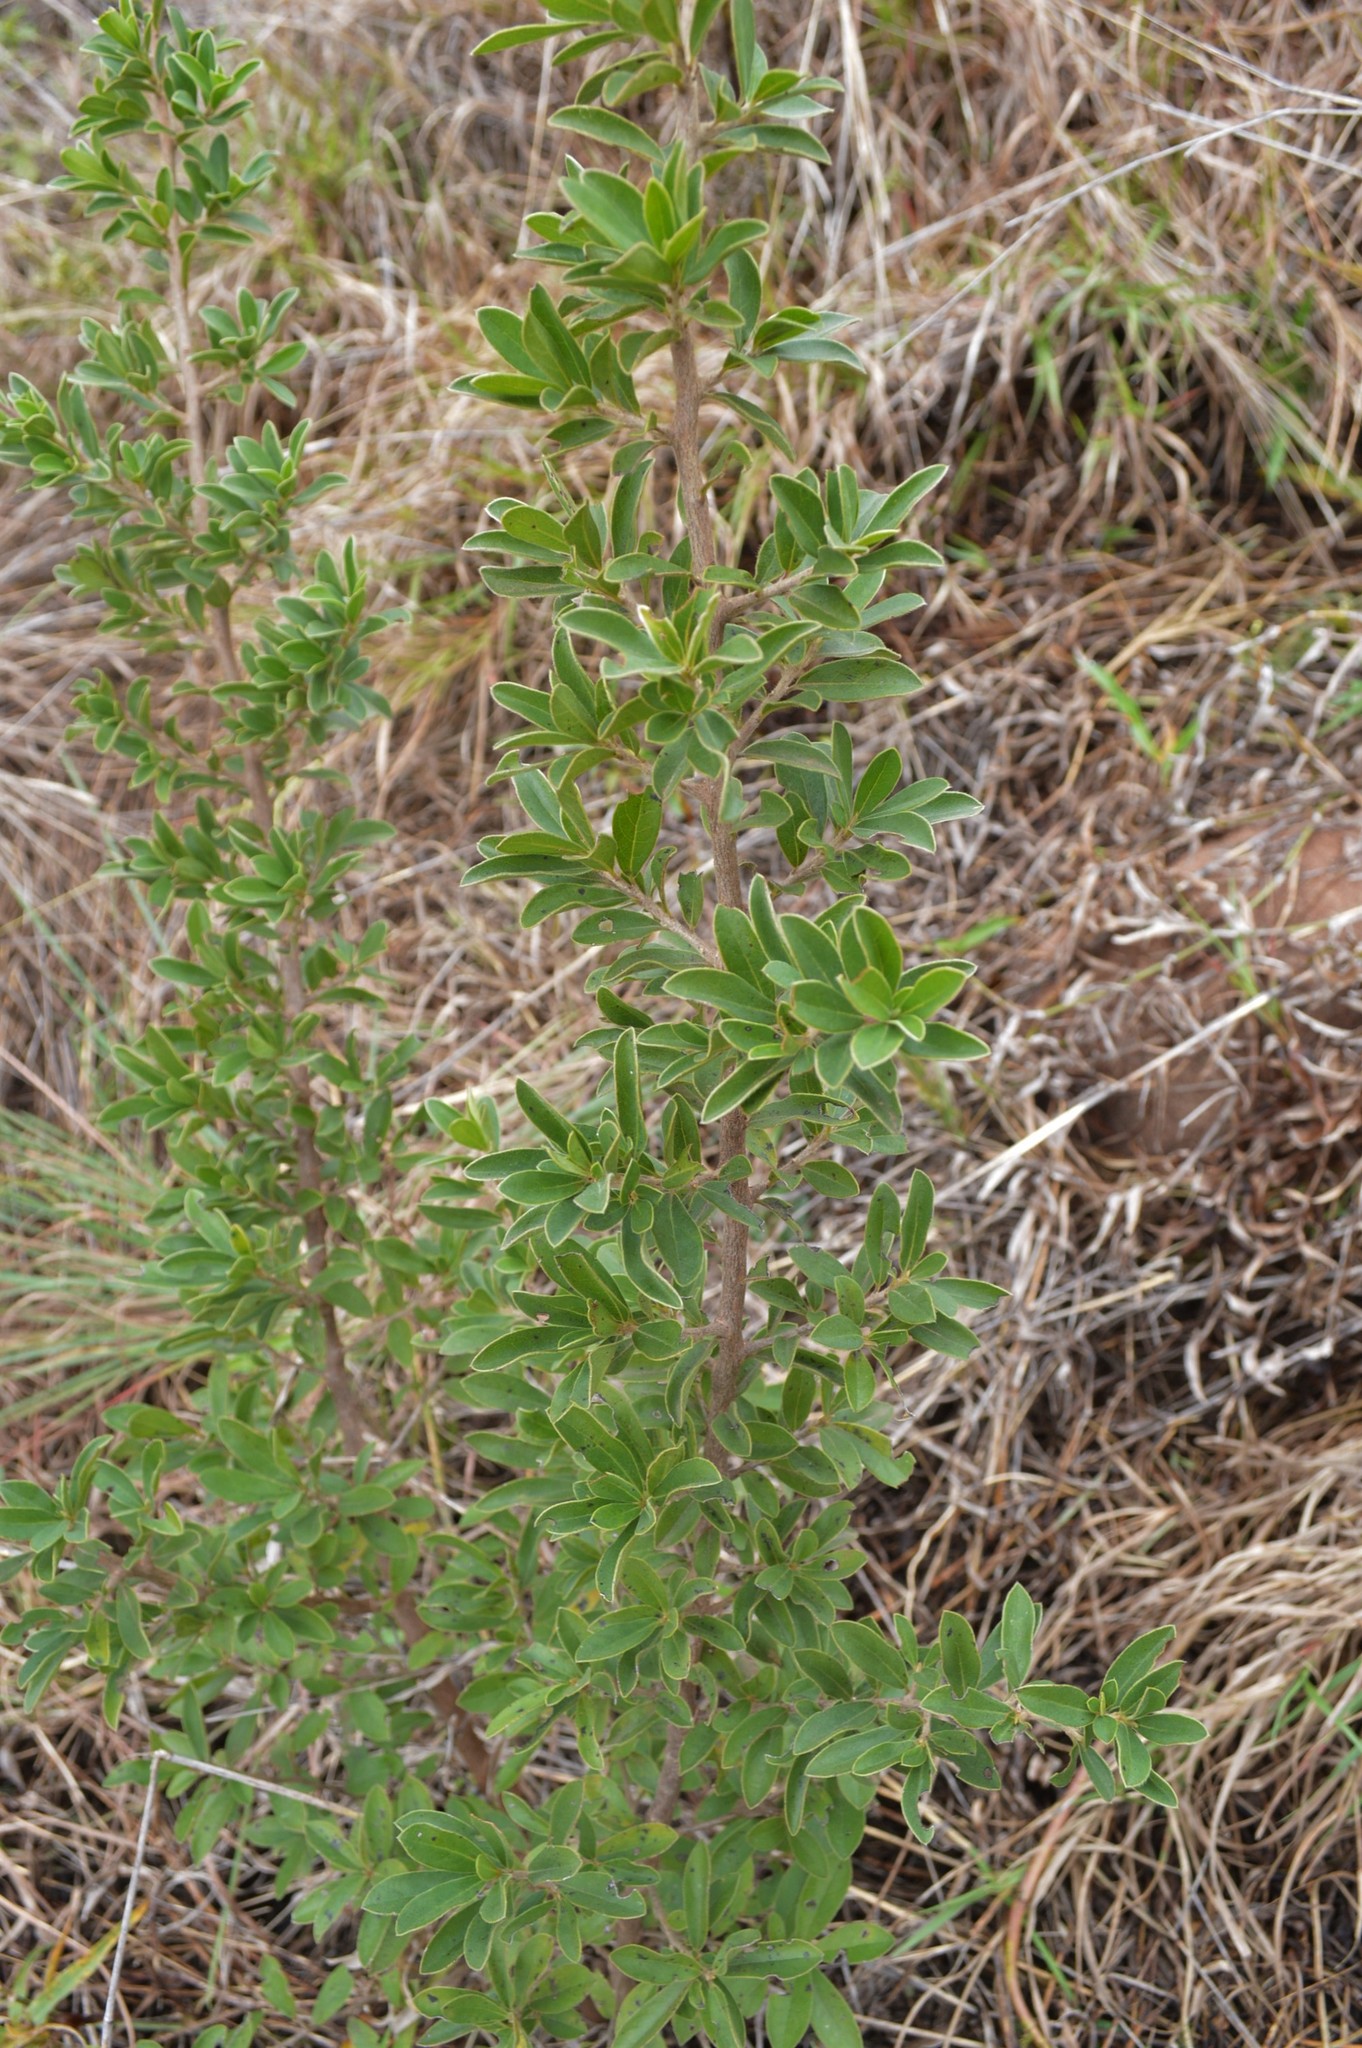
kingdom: Plantae
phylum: Tracheophyta
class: Magnoliopsida
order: Ericales
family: Ebenaceae
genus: Diospyros
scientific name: Diospyros lycioides
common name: Red star apple
